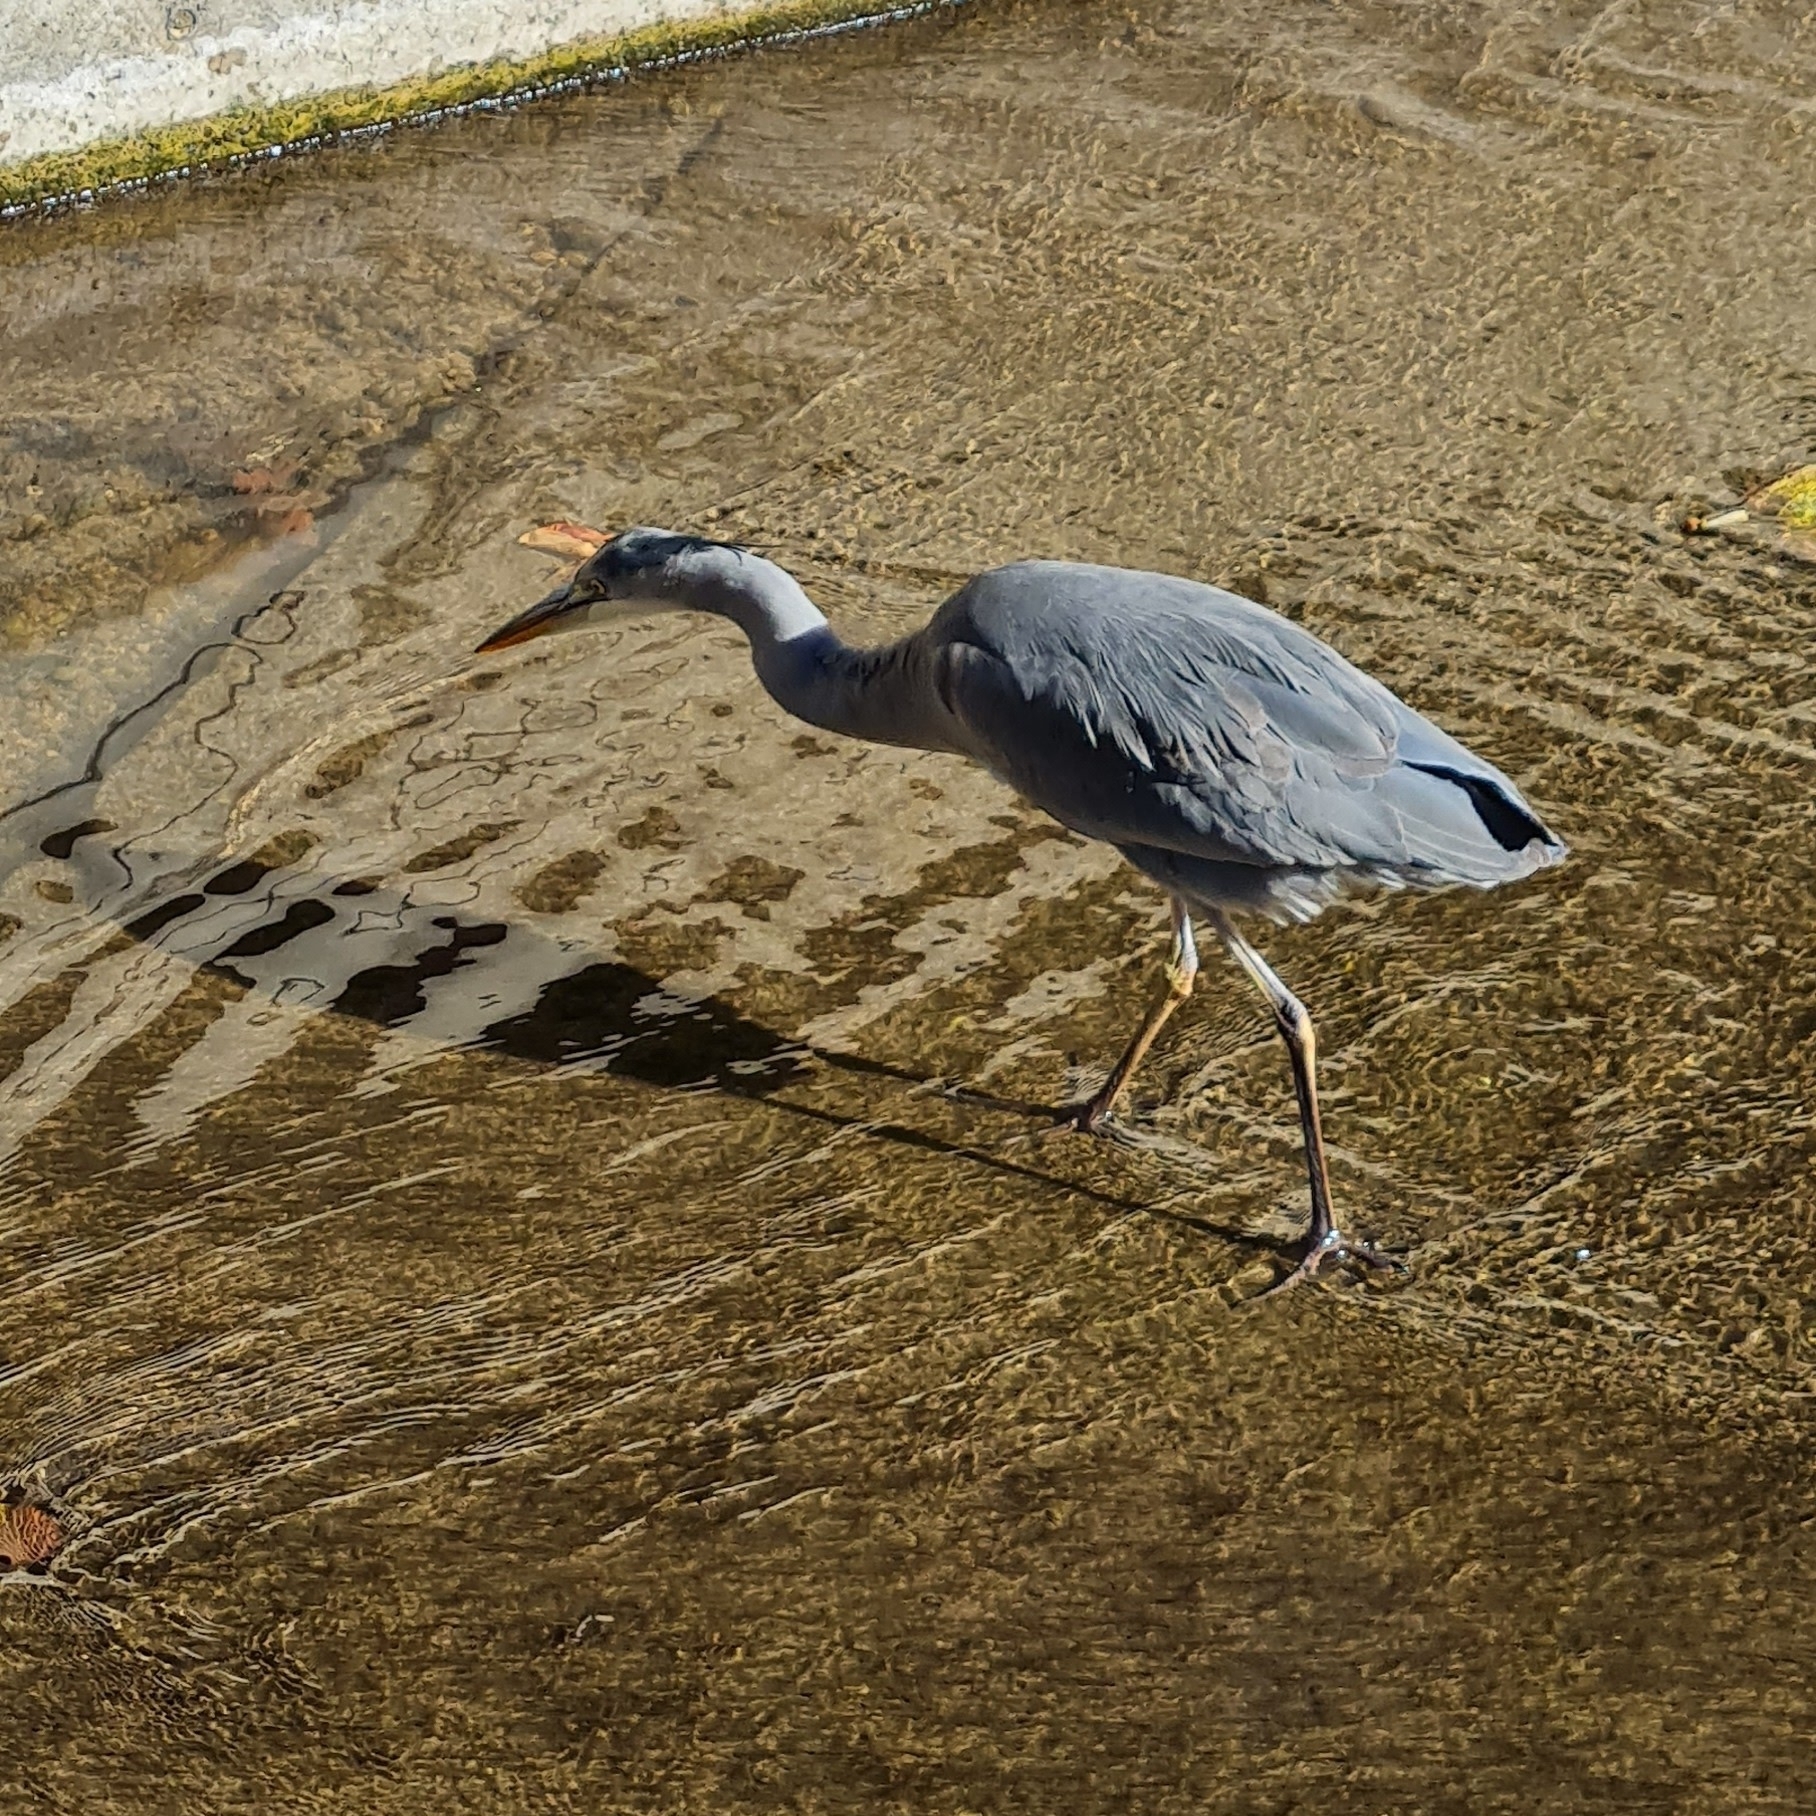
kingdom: Animalia
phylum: Chordata
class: Aves
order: Pelecaniformes
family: Ardeidae
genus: Ardea
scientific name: Ardea cinerea
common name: Grey heron
